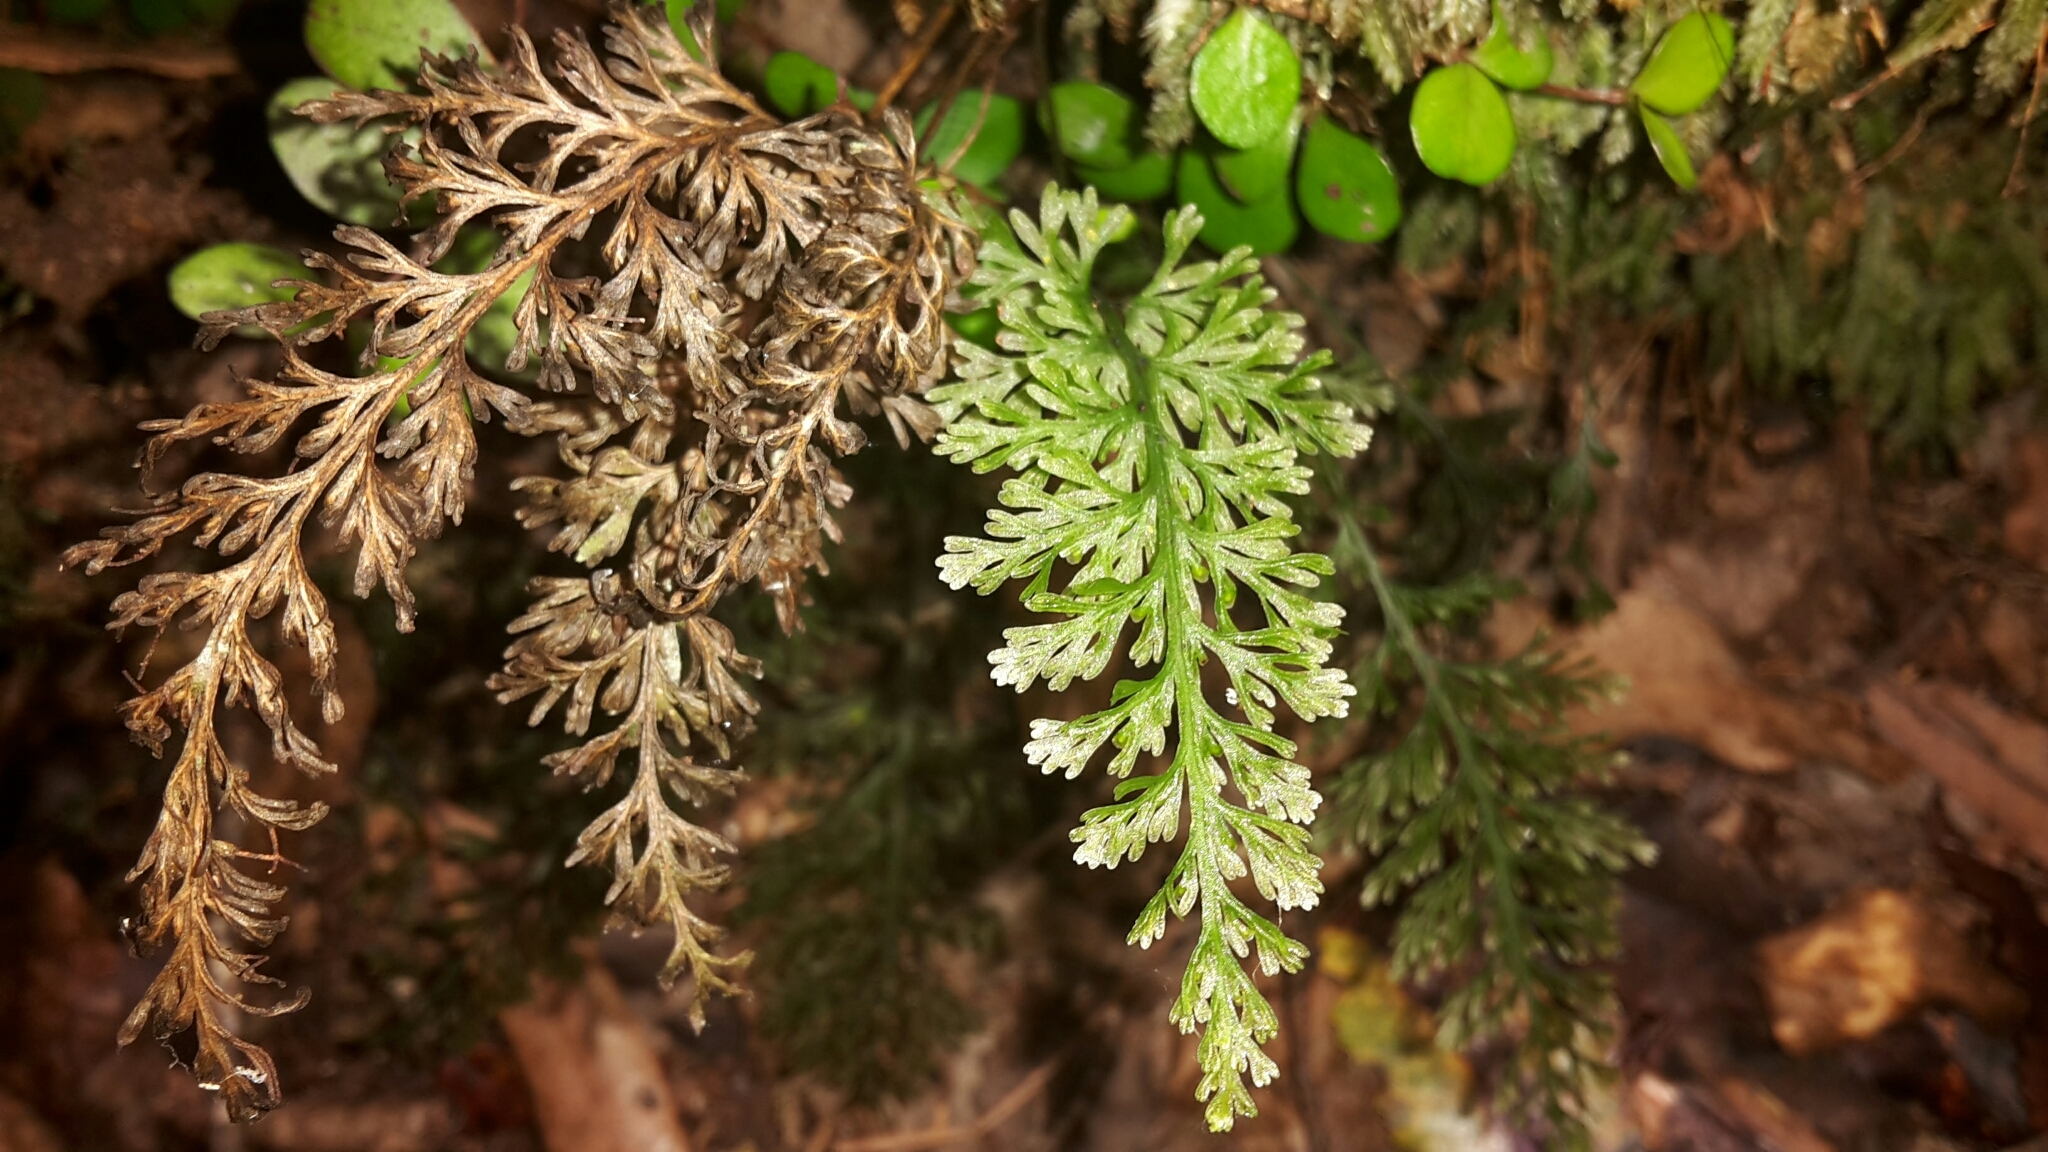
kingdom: Plantae
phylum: Tracheophyta
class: Polypodiopsida
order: Hymenophyllales
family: Hymenophyllaceae
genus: Abrodictyum
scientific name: Abrodictyum strictum
